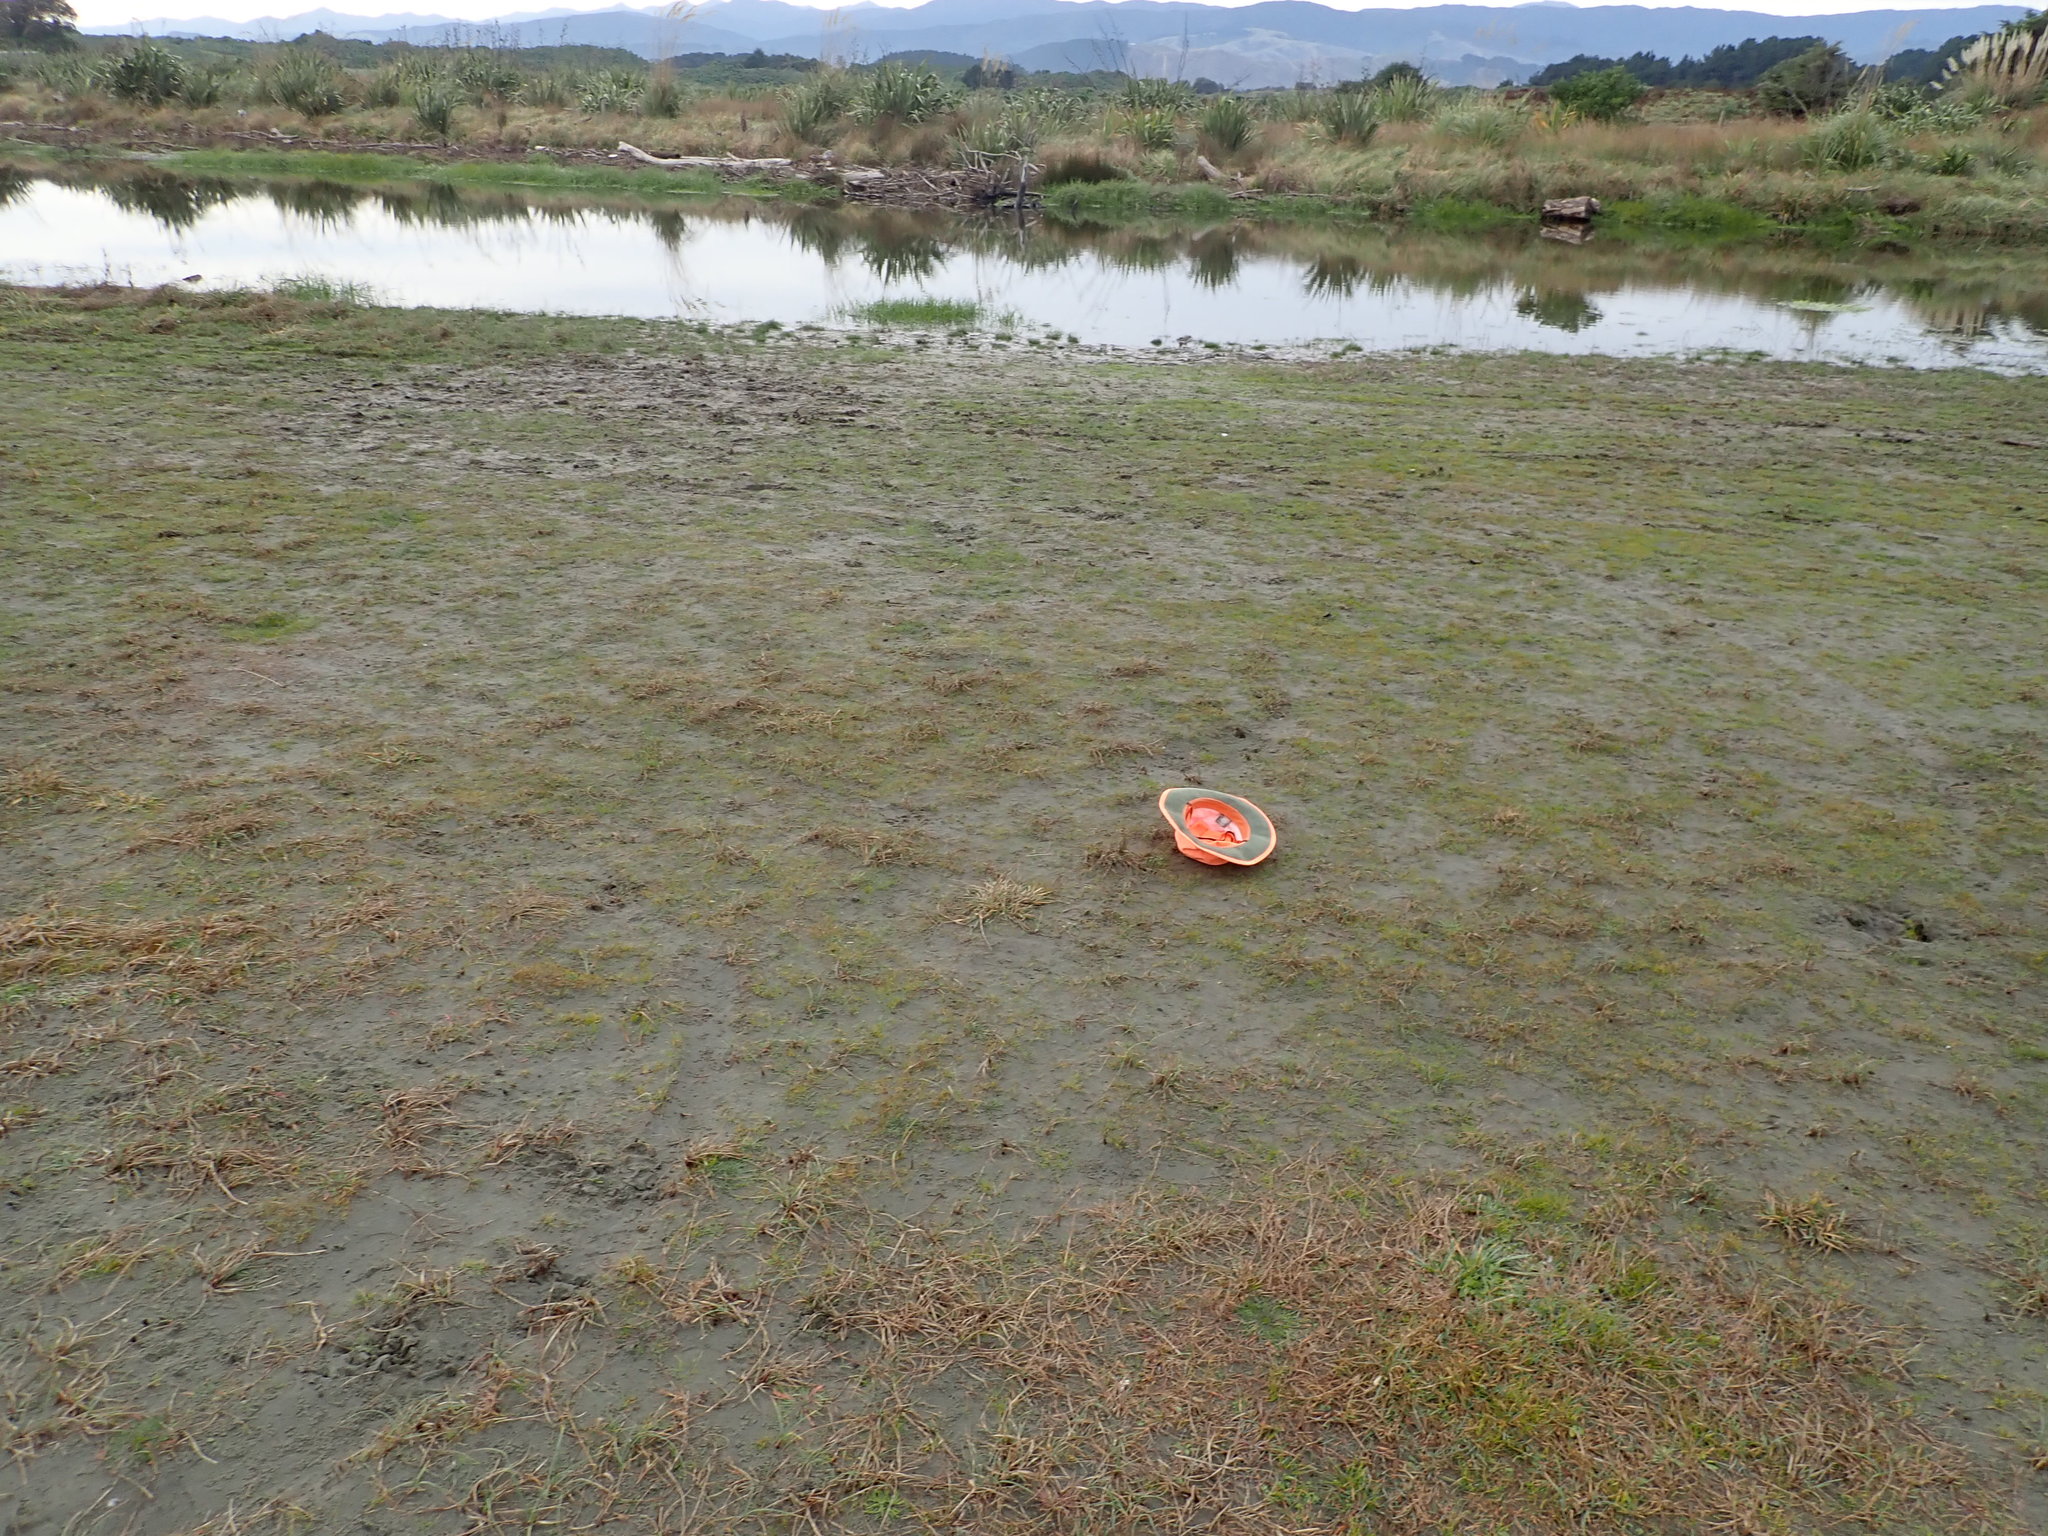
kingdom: Plantae
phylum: Tracheophyta
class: Liliopsida
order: Poales
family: Cyperaceae
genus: Carex
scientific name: Carex pumila
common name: Dwarf sedge
